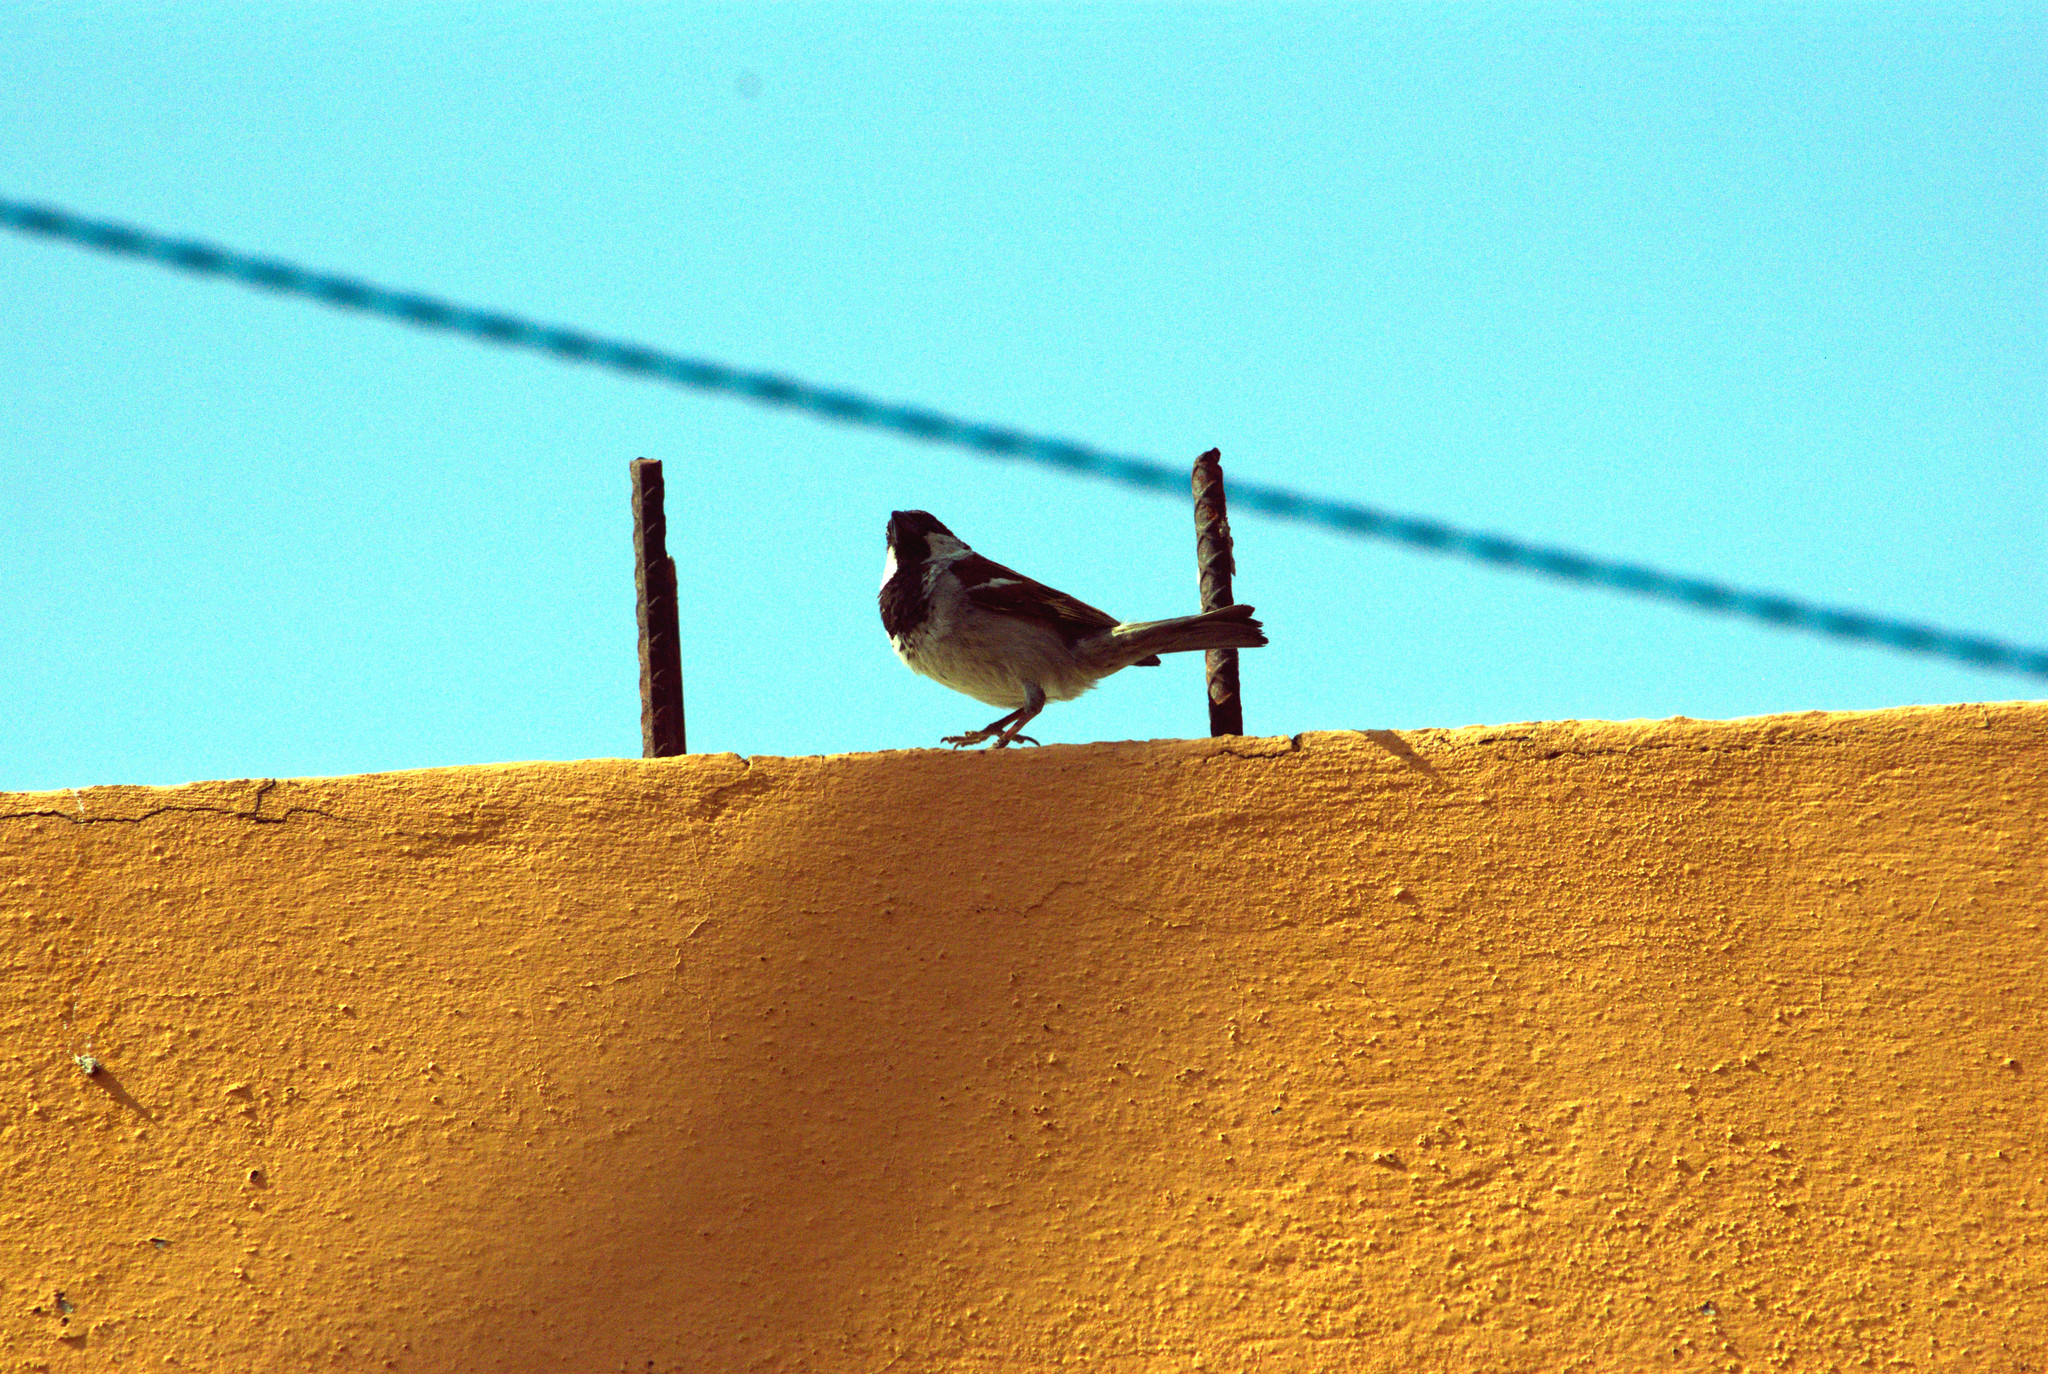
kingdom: Animalia
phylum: Chordata
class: Aves
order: Passeriformes
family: Passeridae
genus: Passer
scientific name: Passer domesticus
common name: House sparrow
